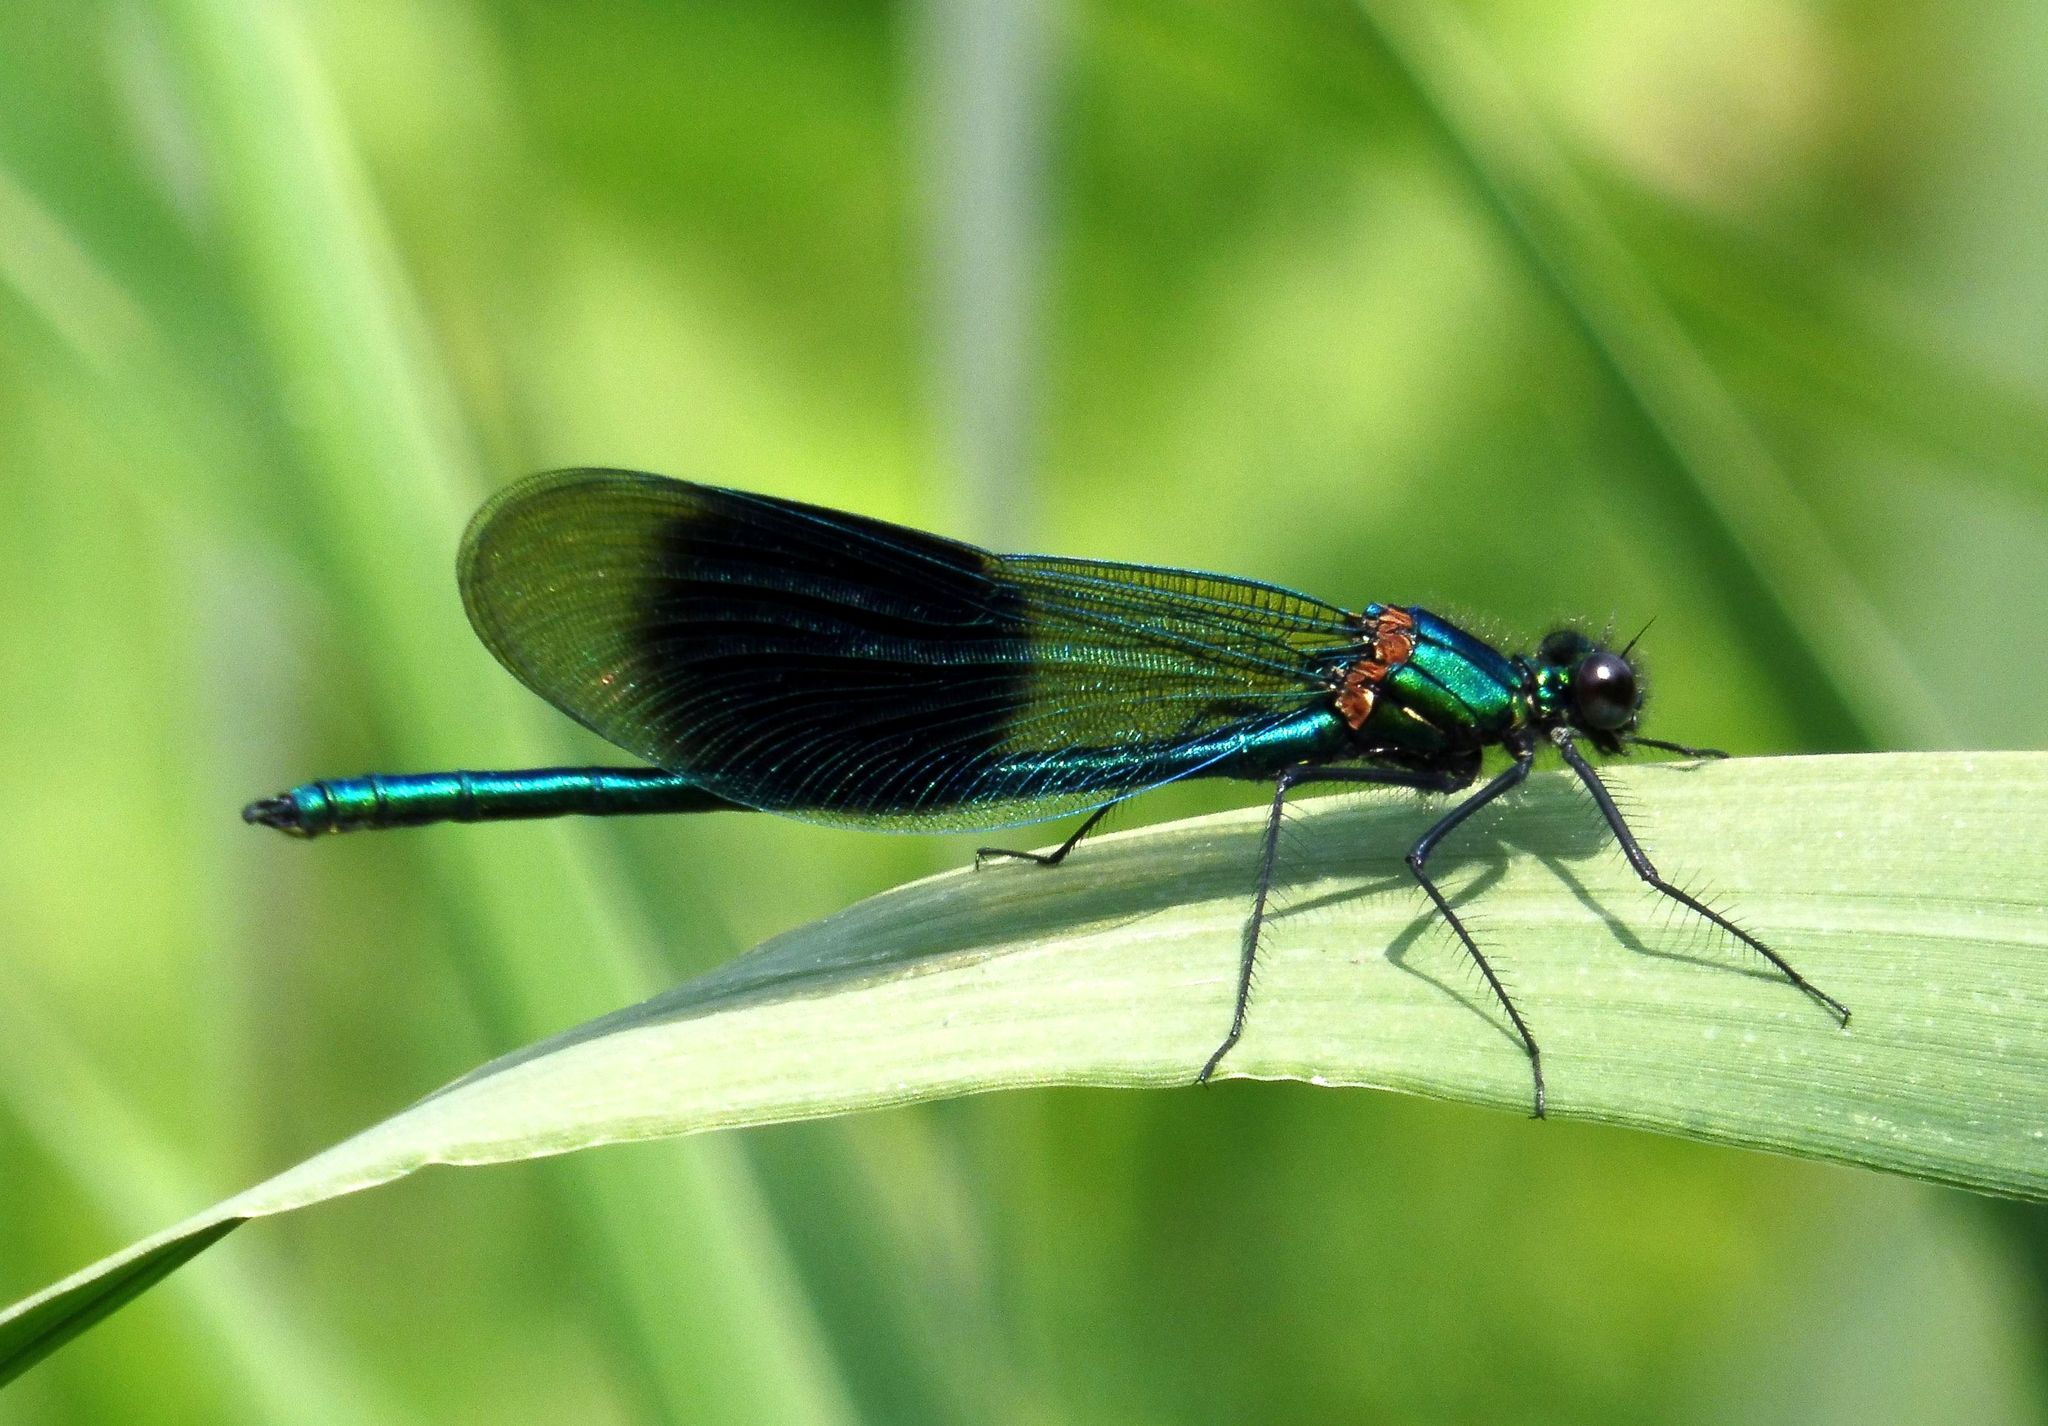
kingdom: Animalia
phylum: Arthropoda
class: Insecta
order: Odonata
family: Calopterygidae
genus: Calopteryx
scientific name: Calopteryx splendens
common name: Banded demoiselle
